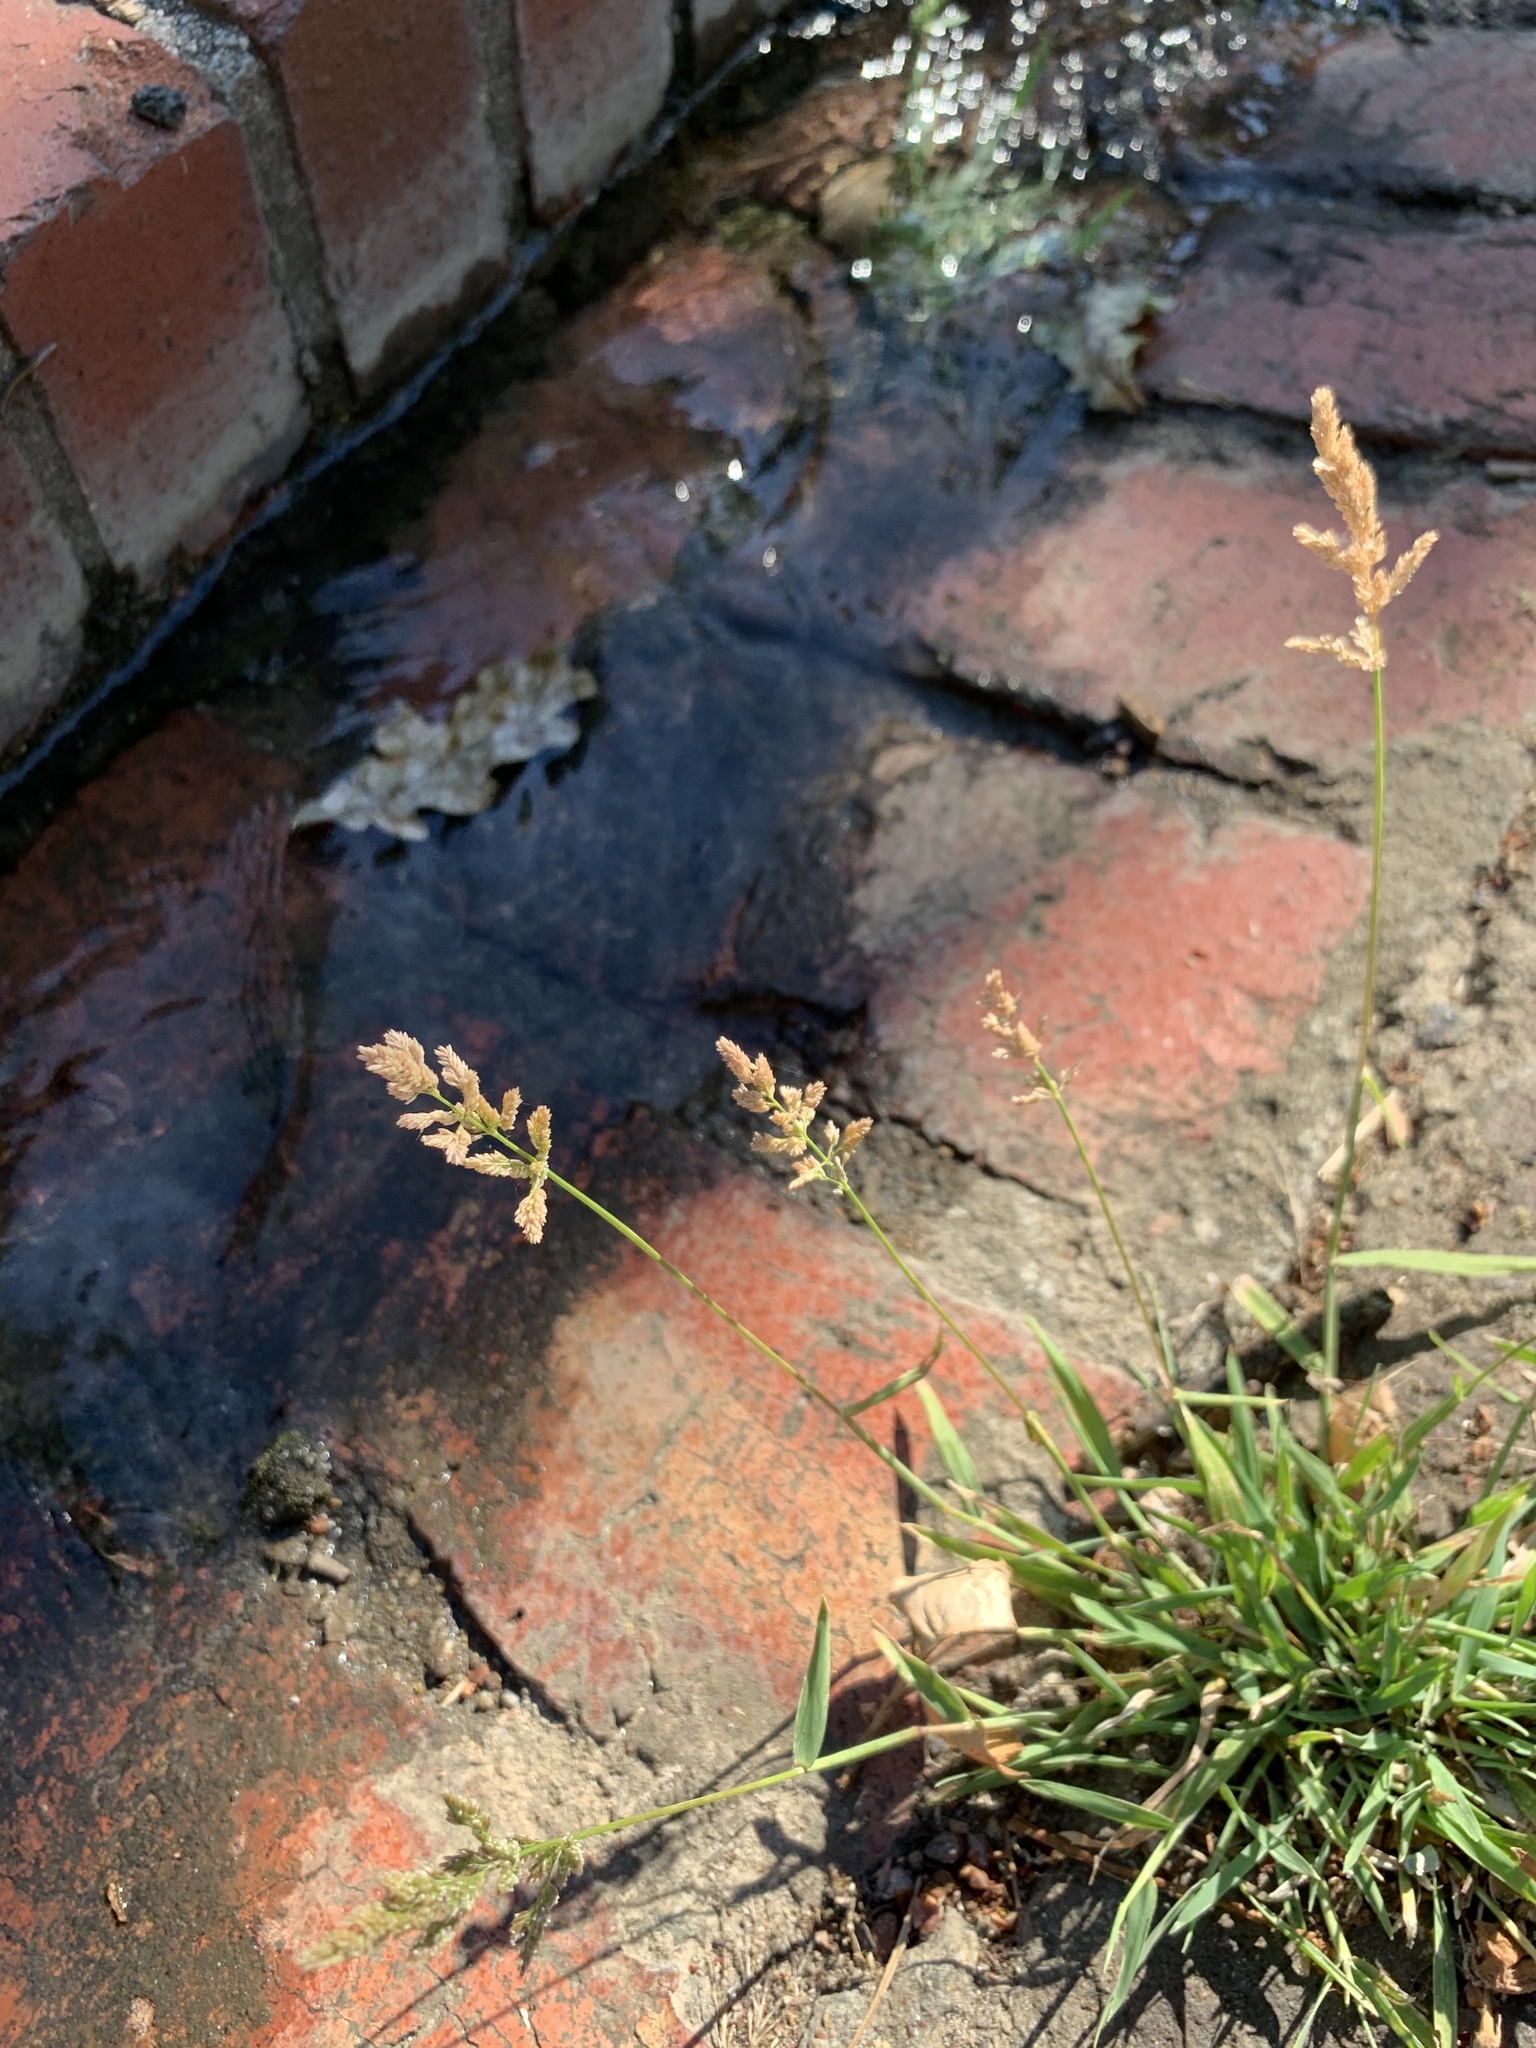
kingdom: Plantae
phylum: Tracheophyta
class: Liliopsida
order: Poales
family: Poaceae
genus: Polypogon
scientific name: Polypogon viridis
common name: Water bent
